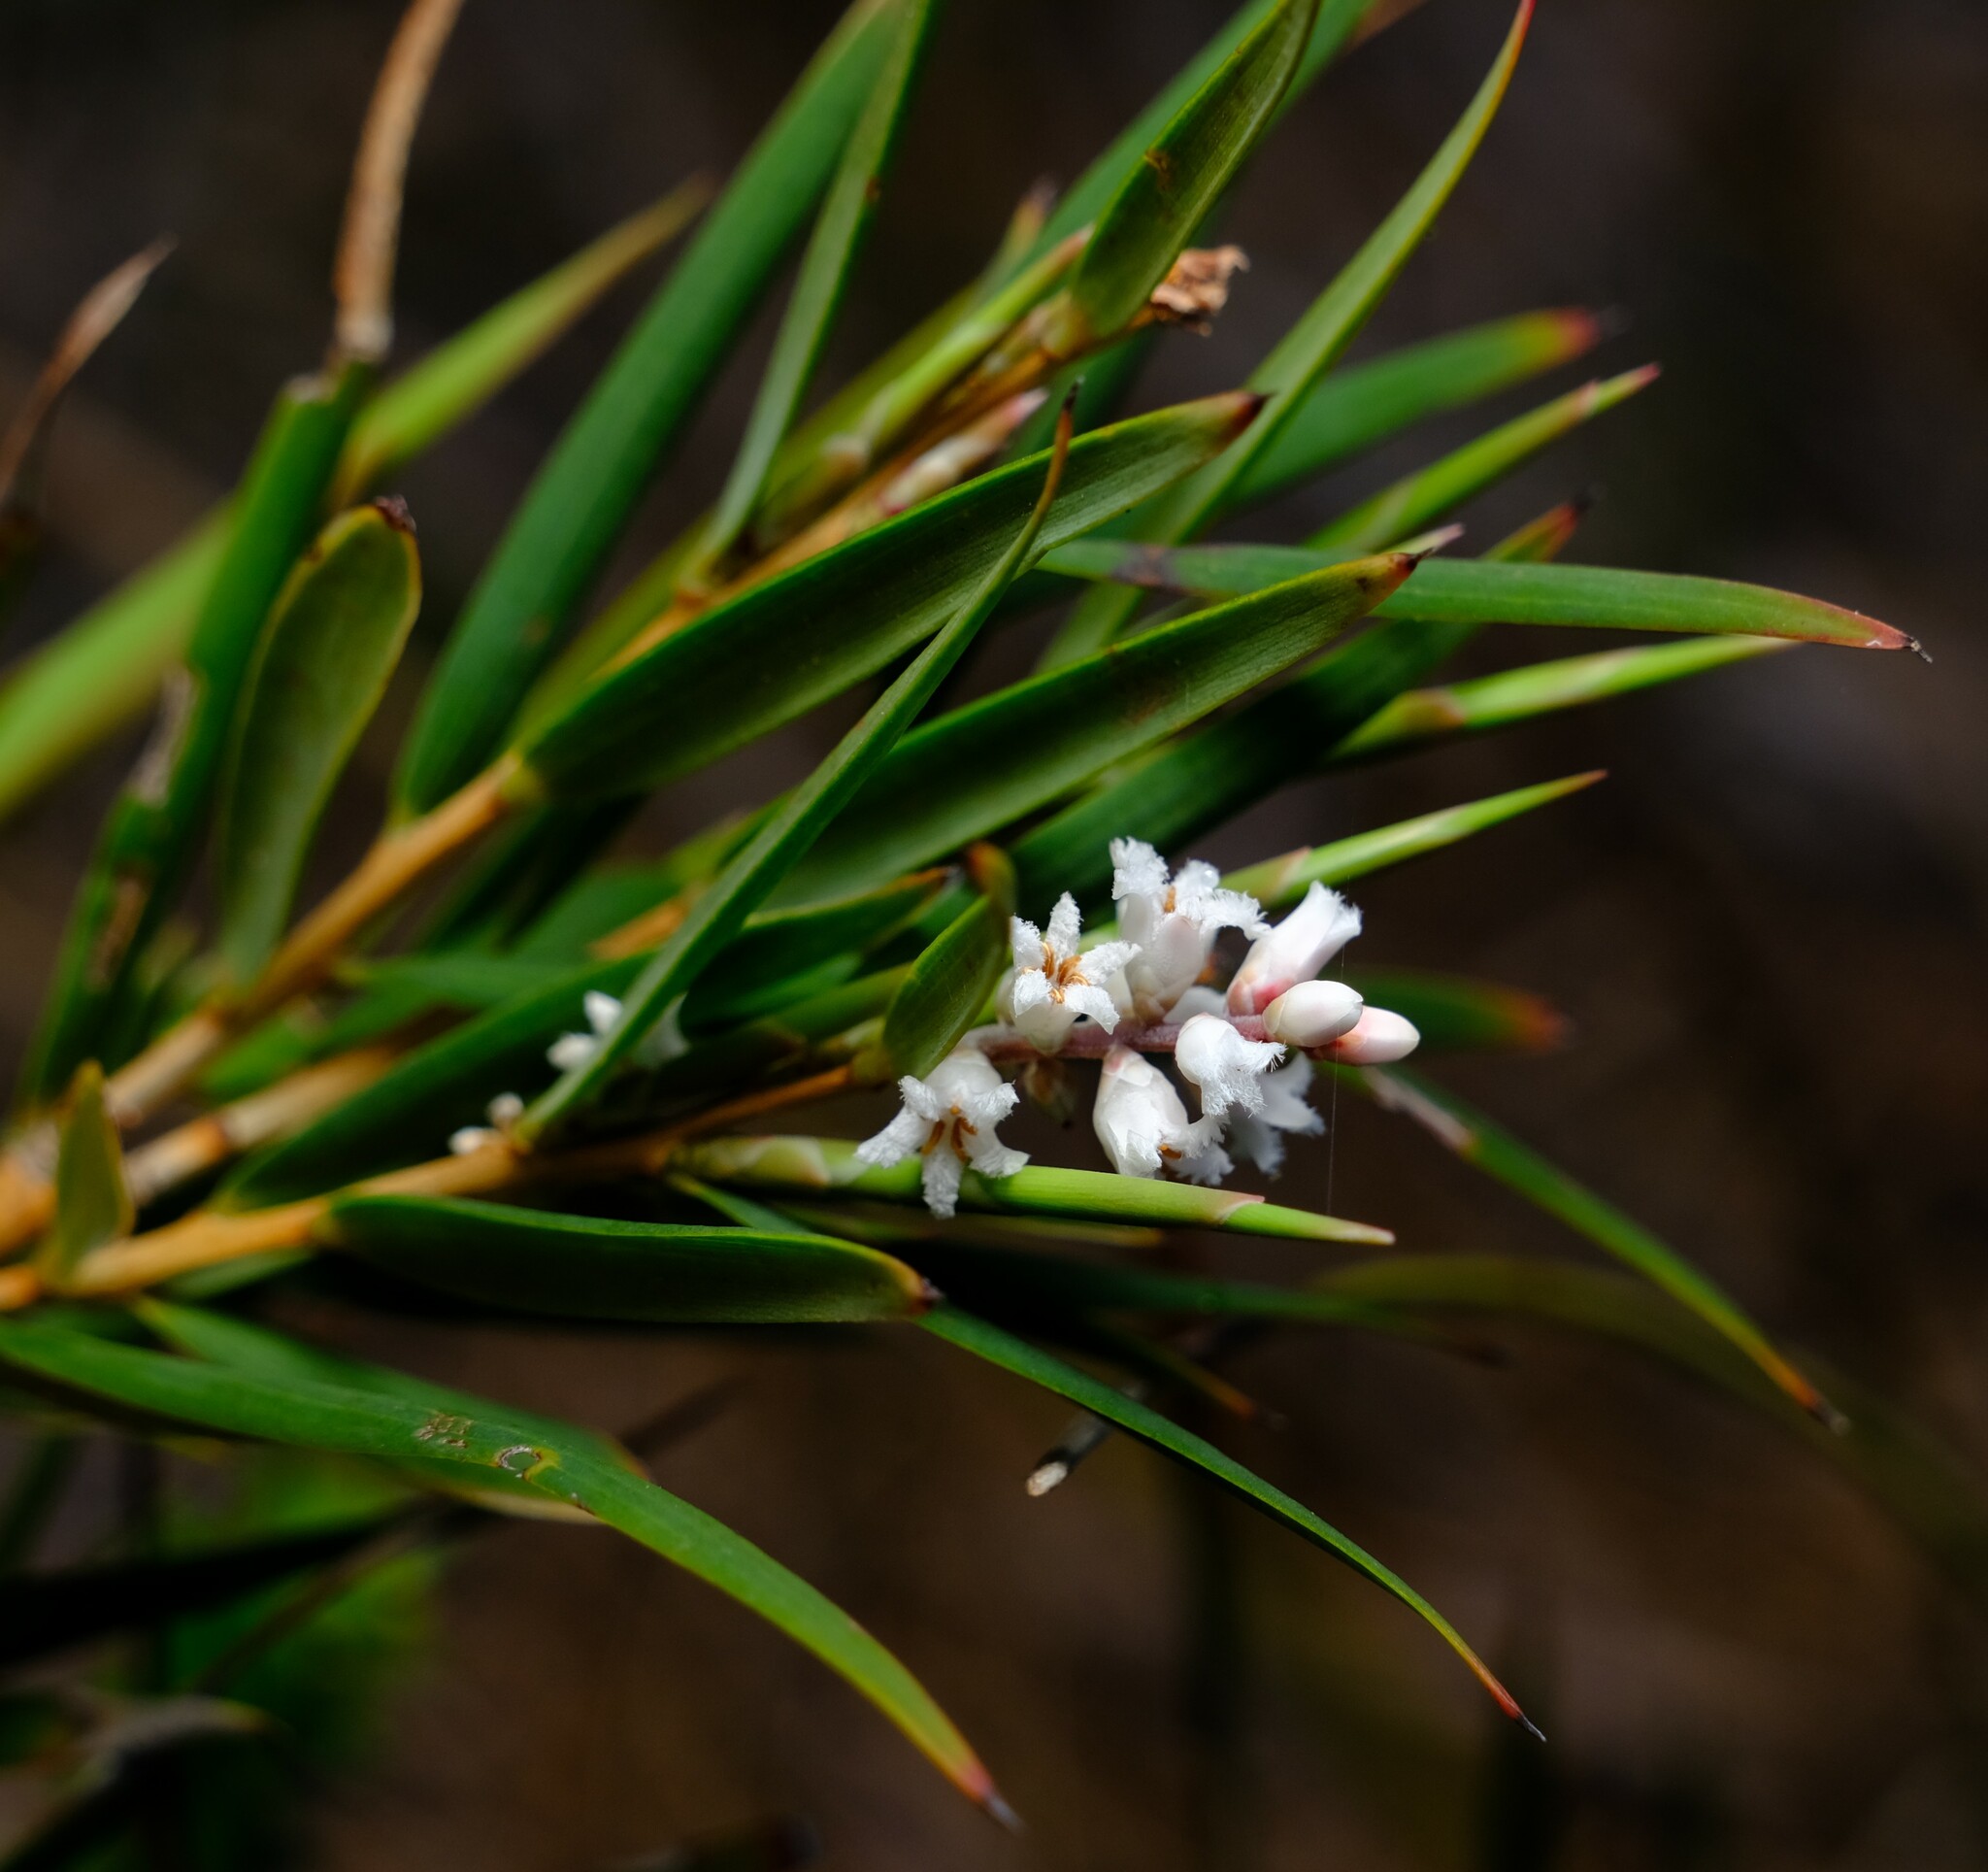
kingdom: Plantae
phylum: Tracheophyta
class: Magnoliopsida
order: Ericales
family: Ericaceae
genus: Leucopogon
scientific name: Leucopogon australis
